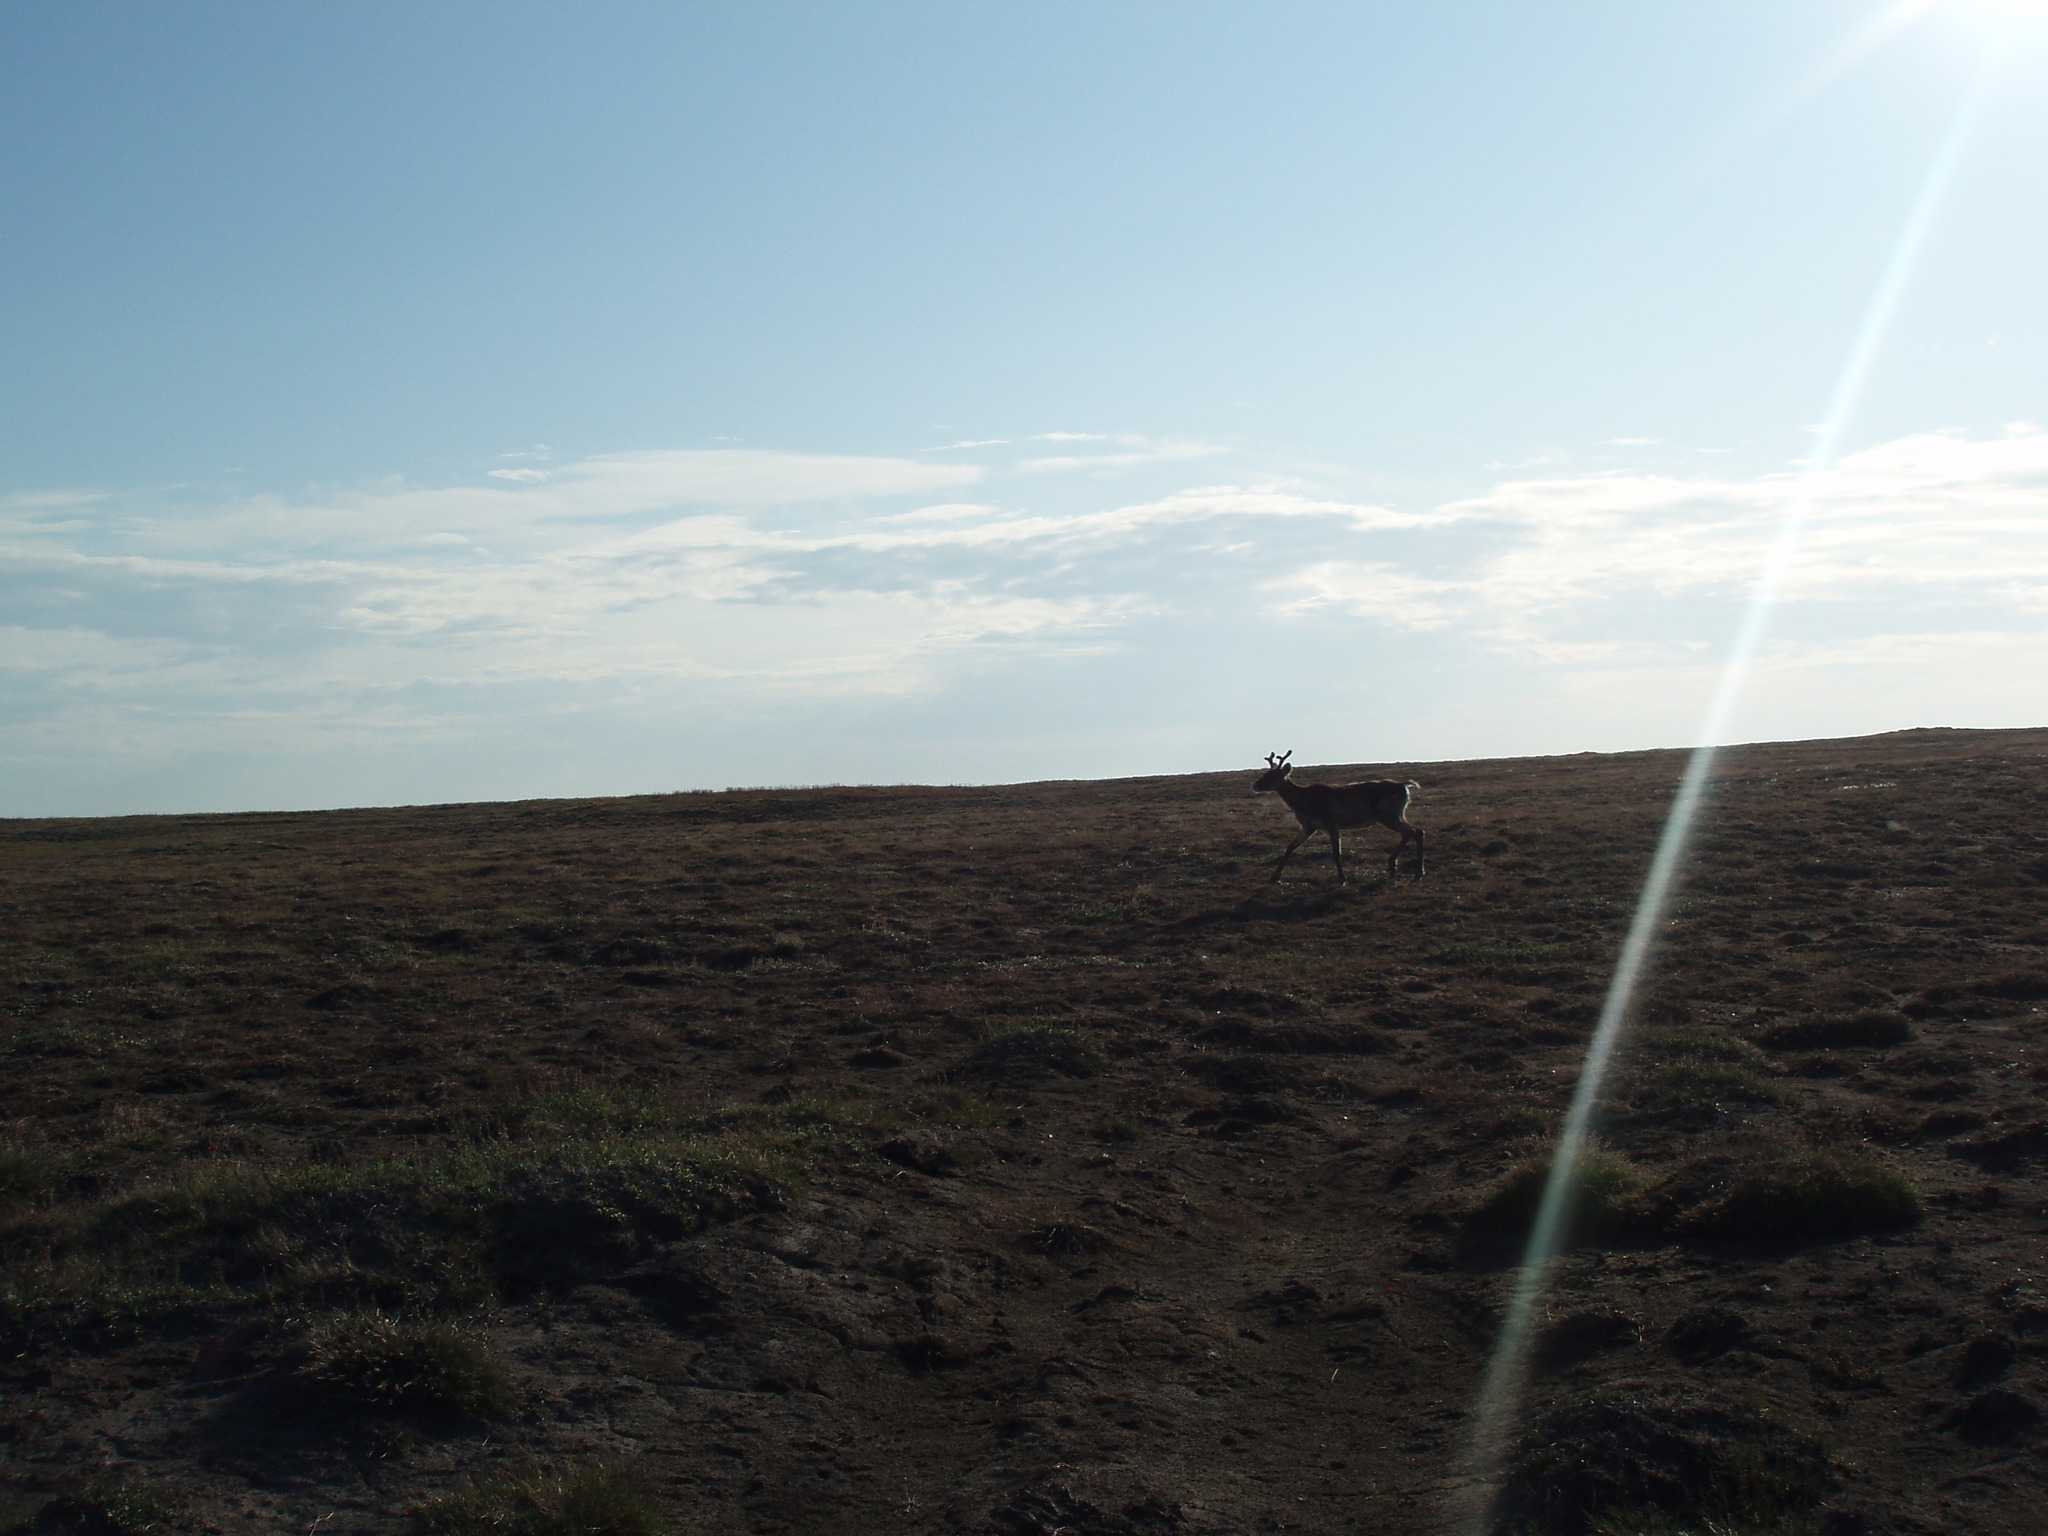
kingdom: Animalia
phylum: Chordata
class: Mammalia
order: Artiodactyla
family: Cervidae
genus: Rangifer
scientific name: Rangifer tarandus
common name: Reindeer
